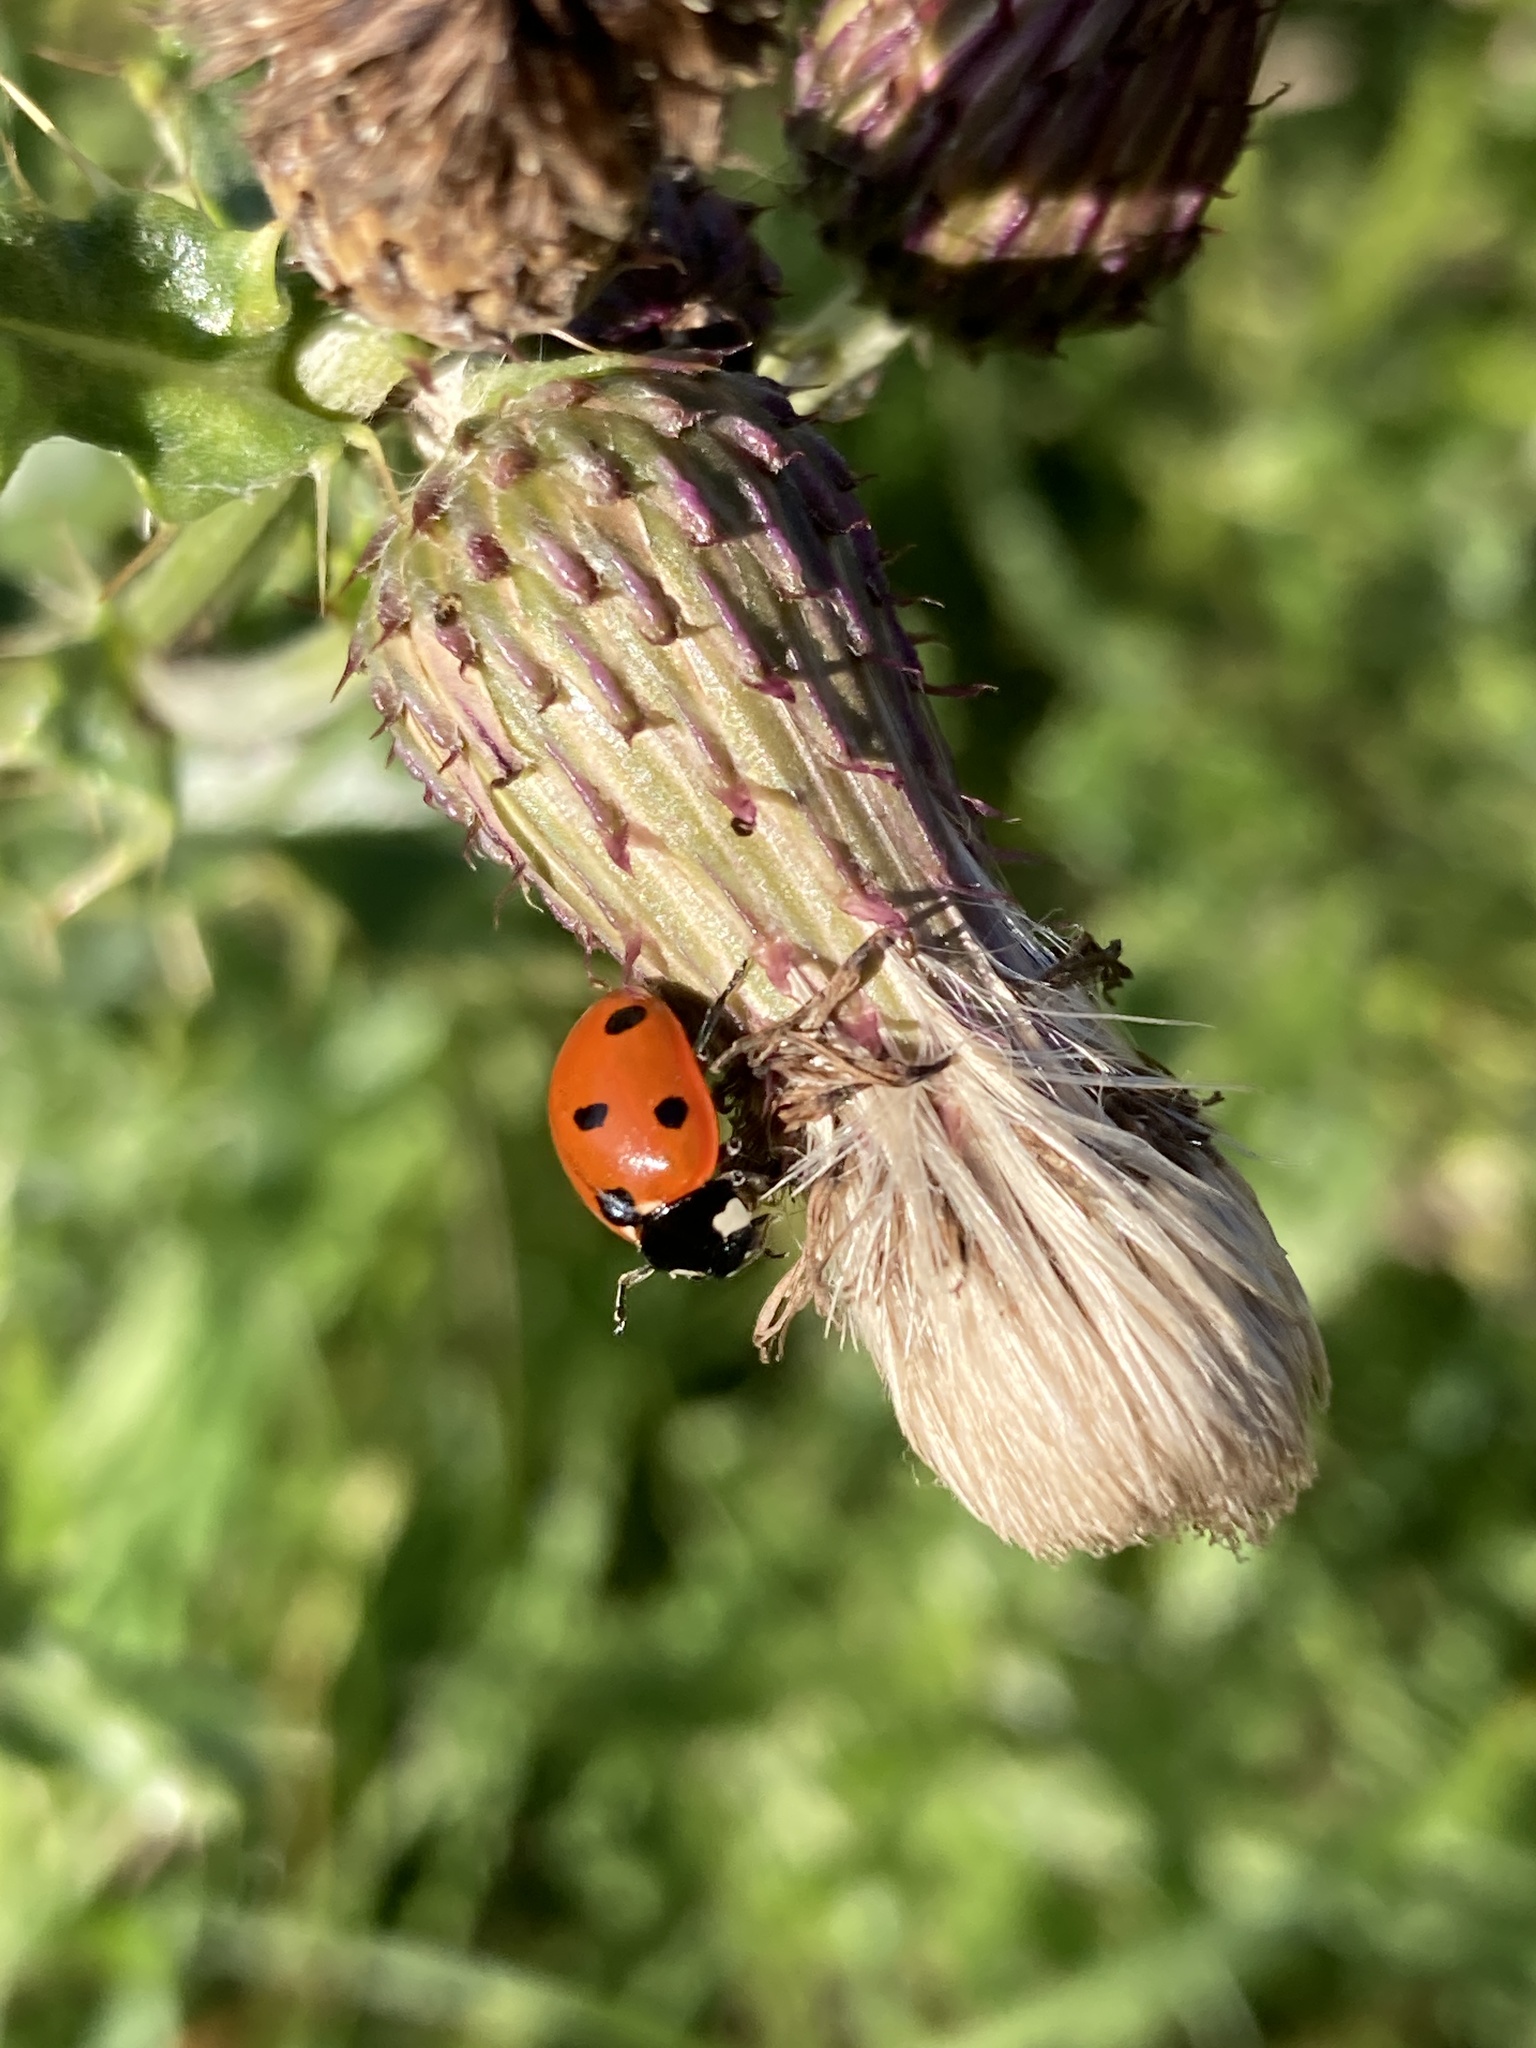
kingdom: Animalia
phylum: Arthropoda
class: Insecta
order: Coleoptera
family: Coccinellidae
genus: Coccinella
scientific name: Coccinella septempunctata
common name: Sevenspotted lady beetle
